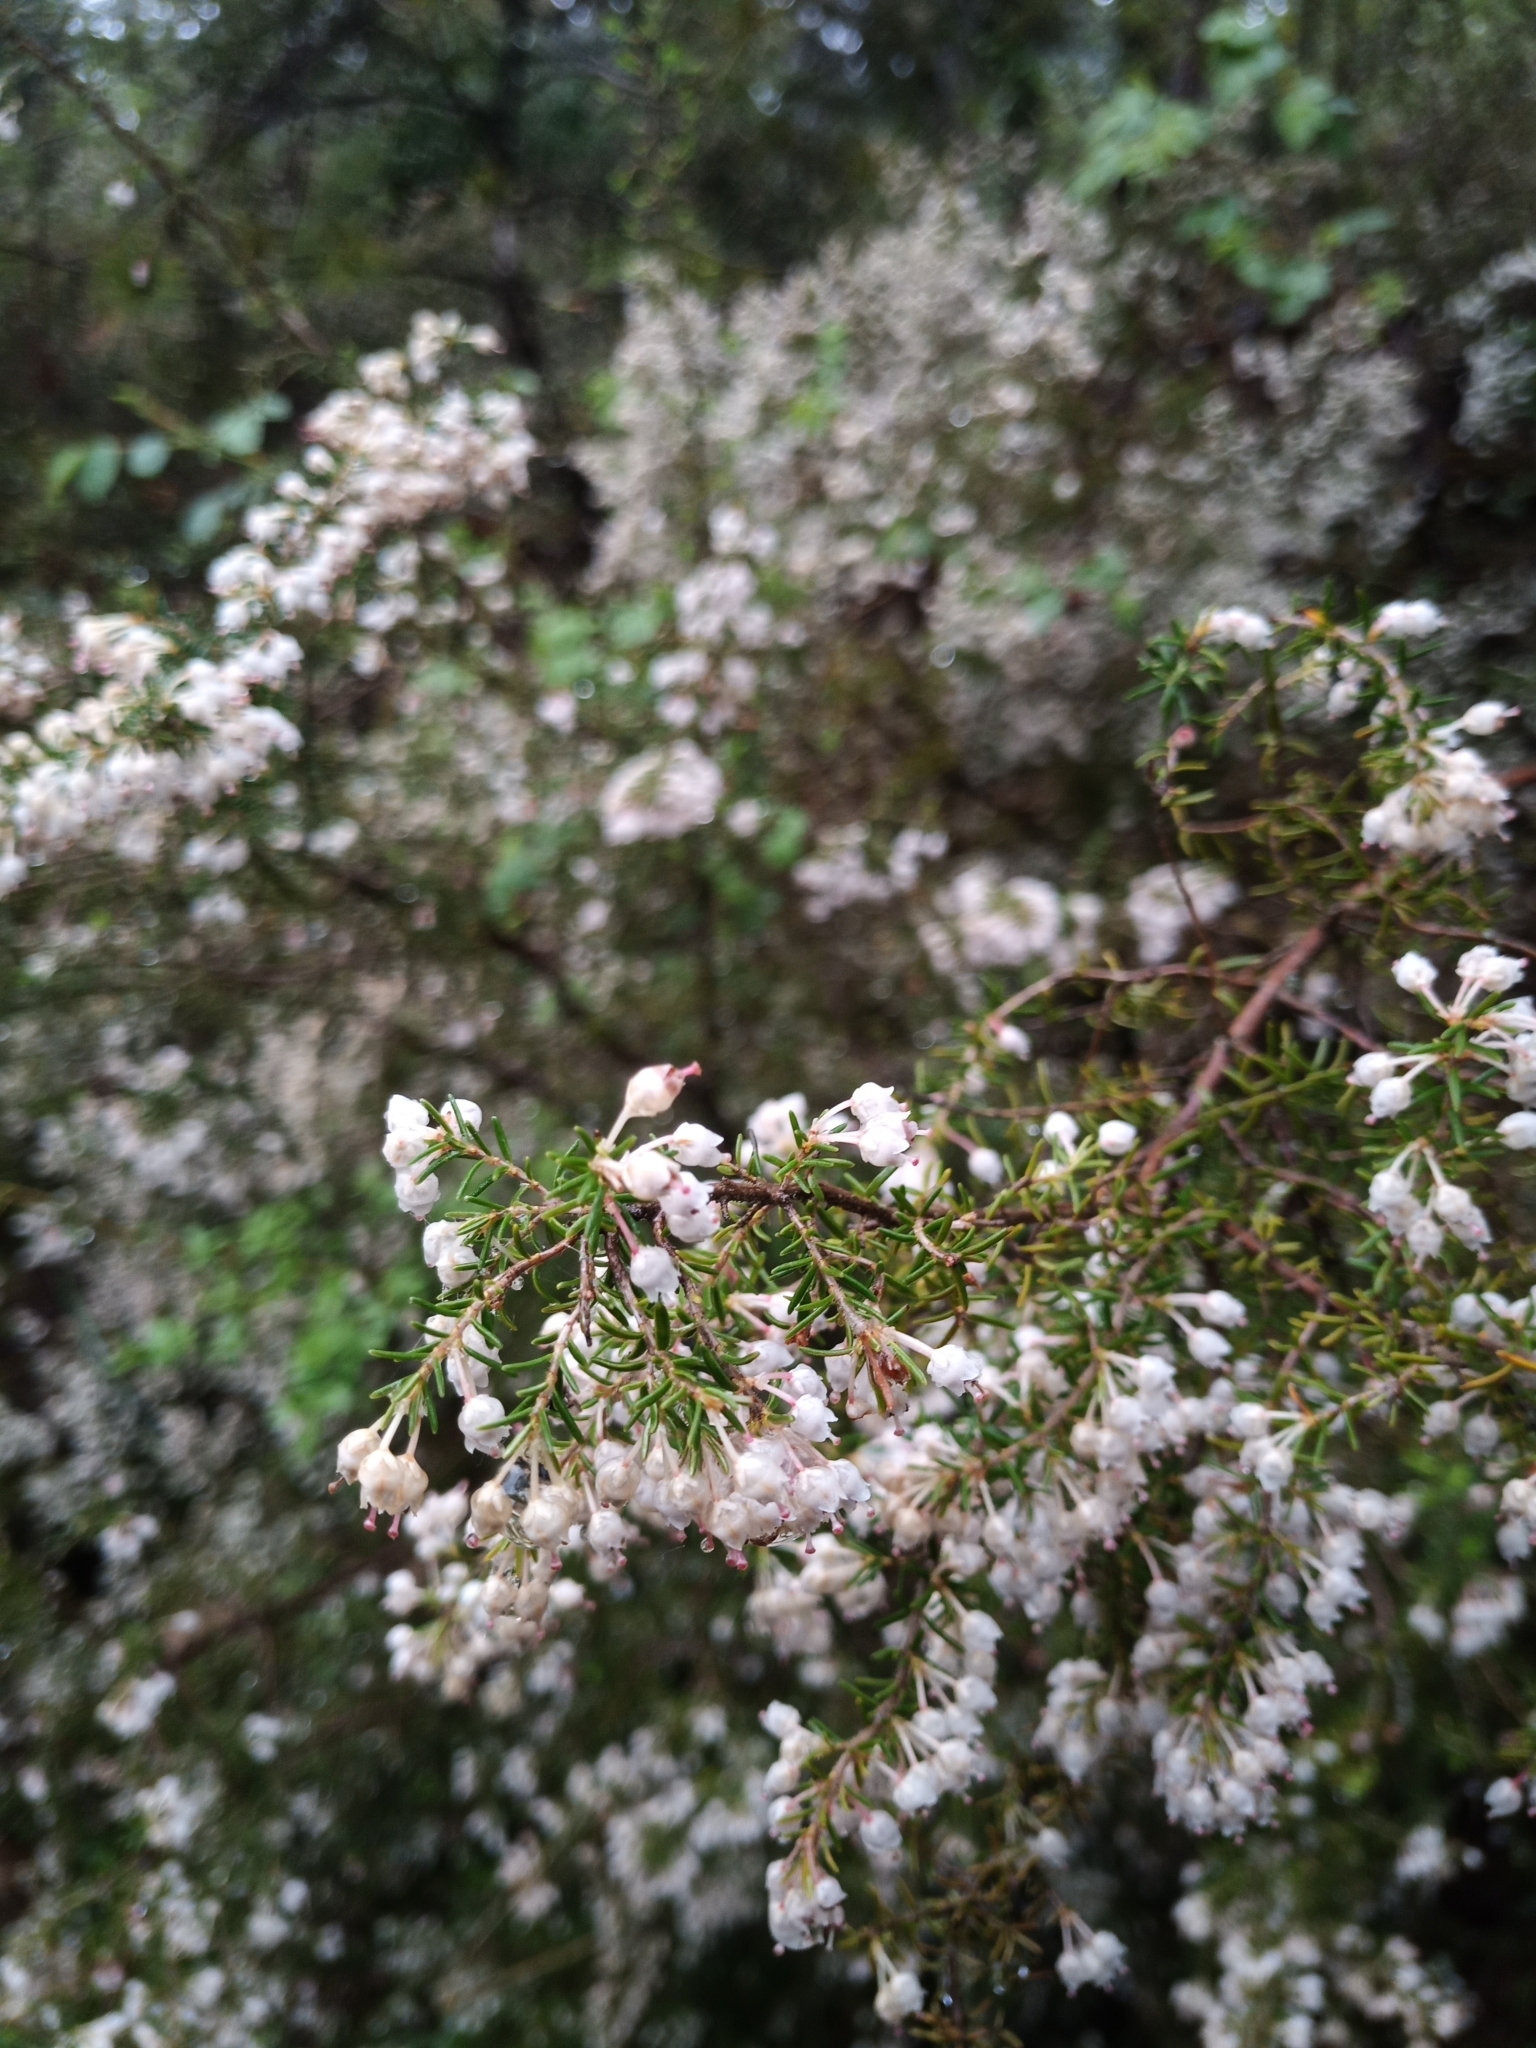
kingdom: Plantae
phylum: Tracheophyta
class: Magnoliopsida
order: Ericales
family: Ericaceae
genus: Erica
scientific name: Erica arborea
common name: Tree heath
